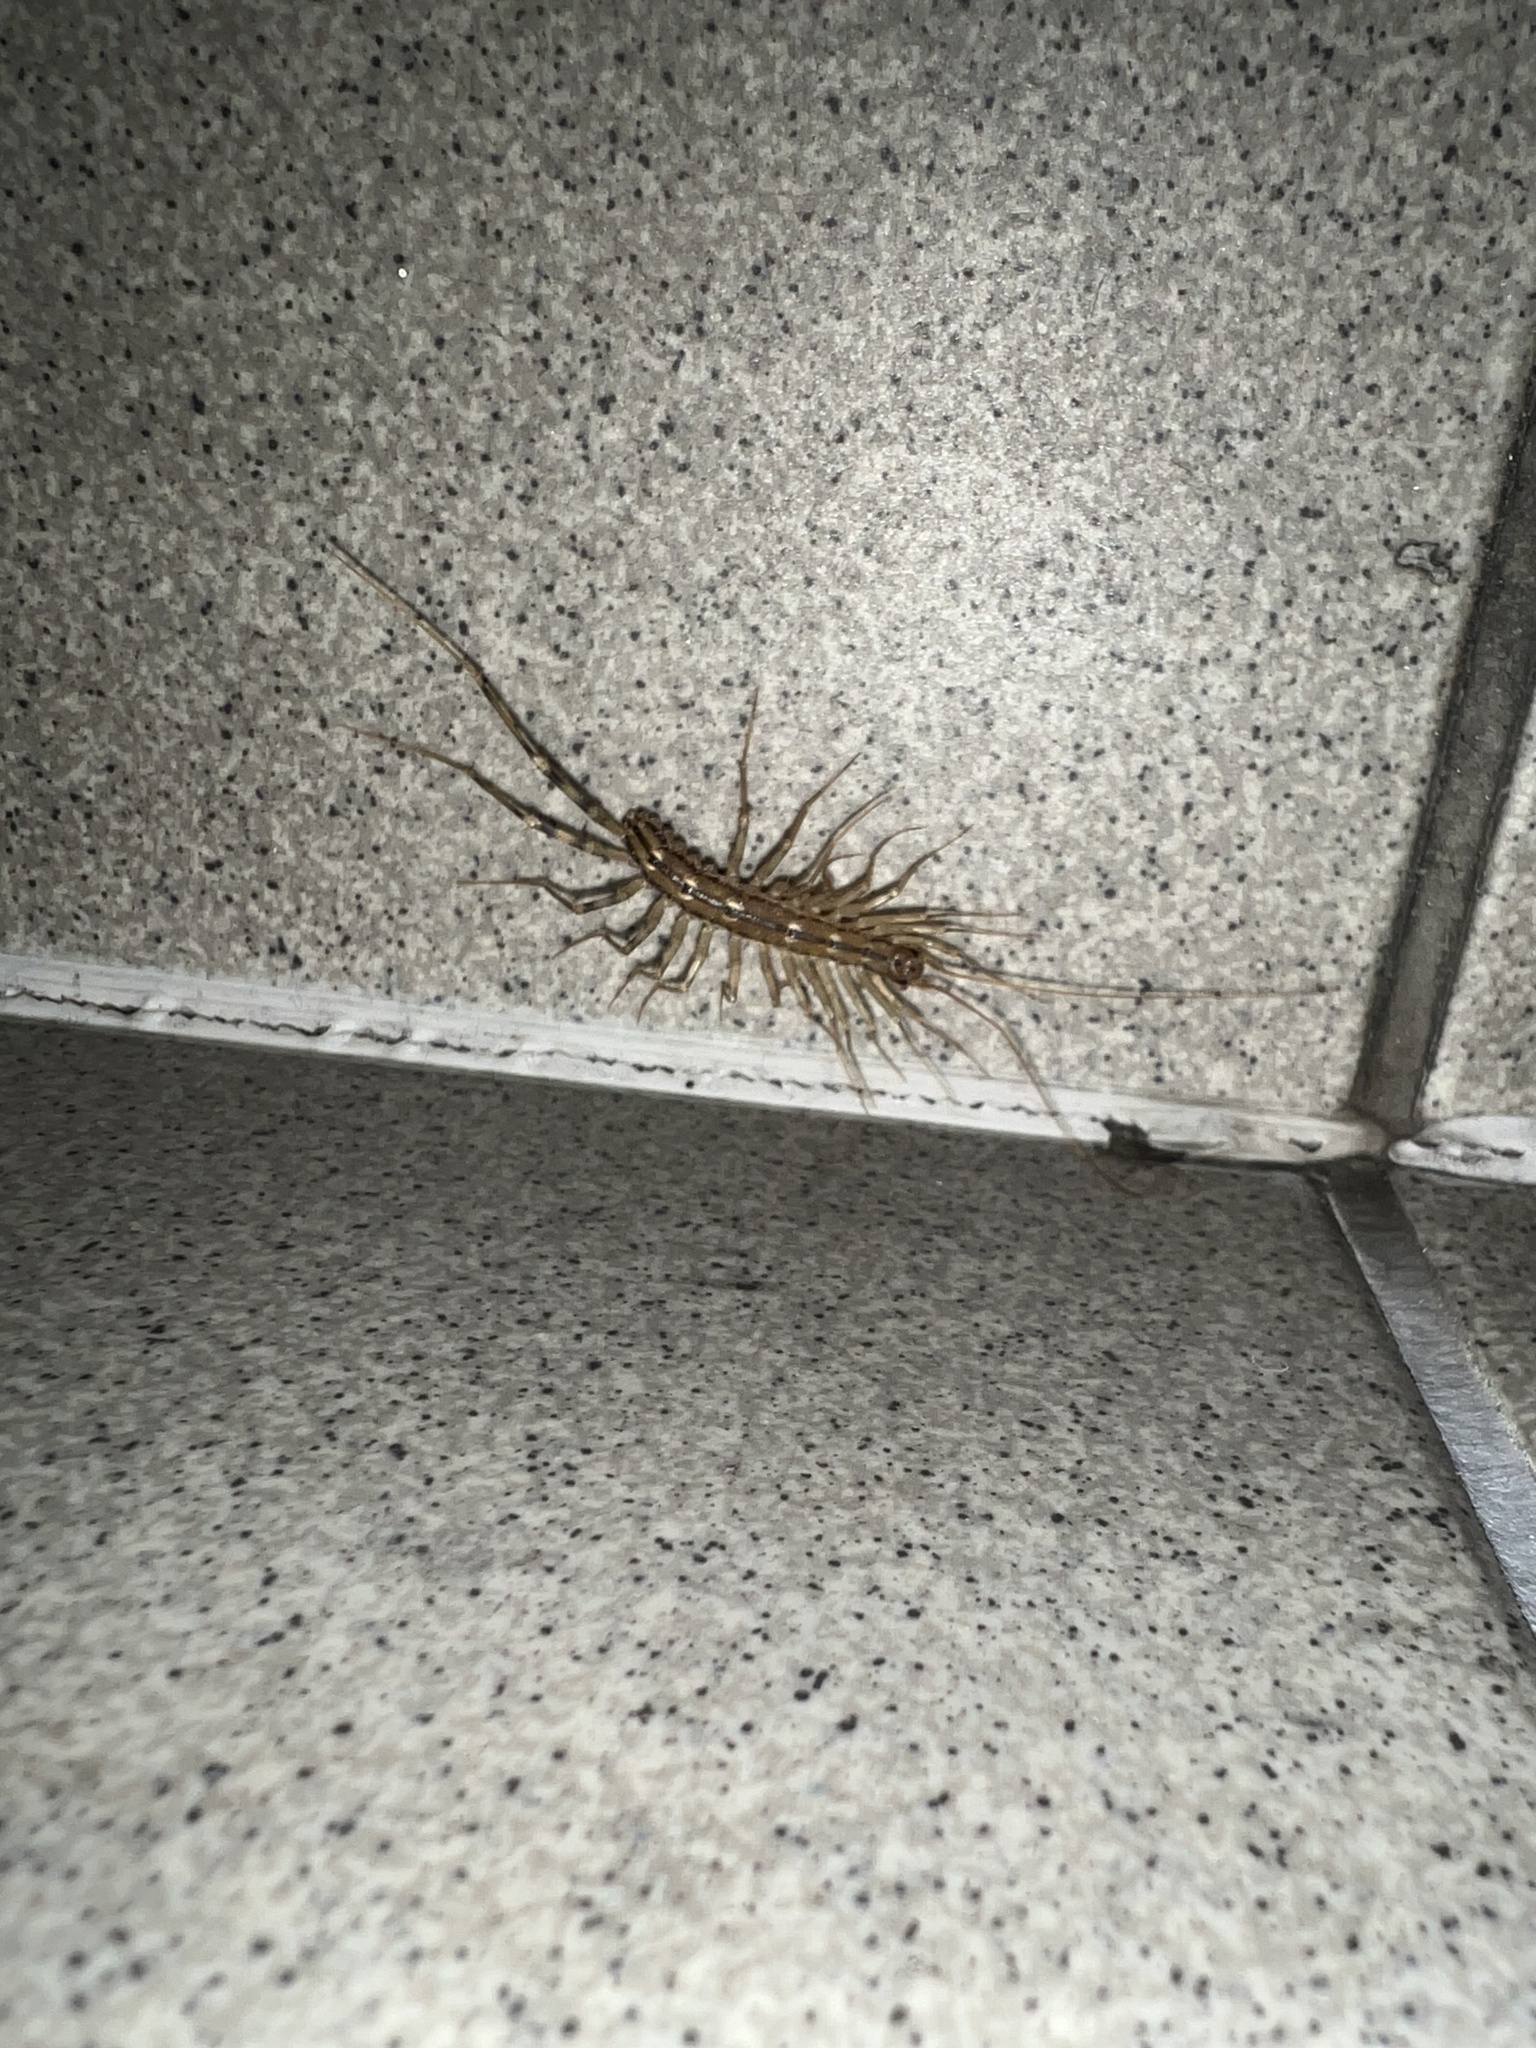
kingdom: Animalia
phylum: Arthropoda
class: Chilopoda
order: Scutigeromorpha
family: Scutigeridae
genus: Scutigera
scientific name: Scutigera coleoptrata
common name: House centipede
